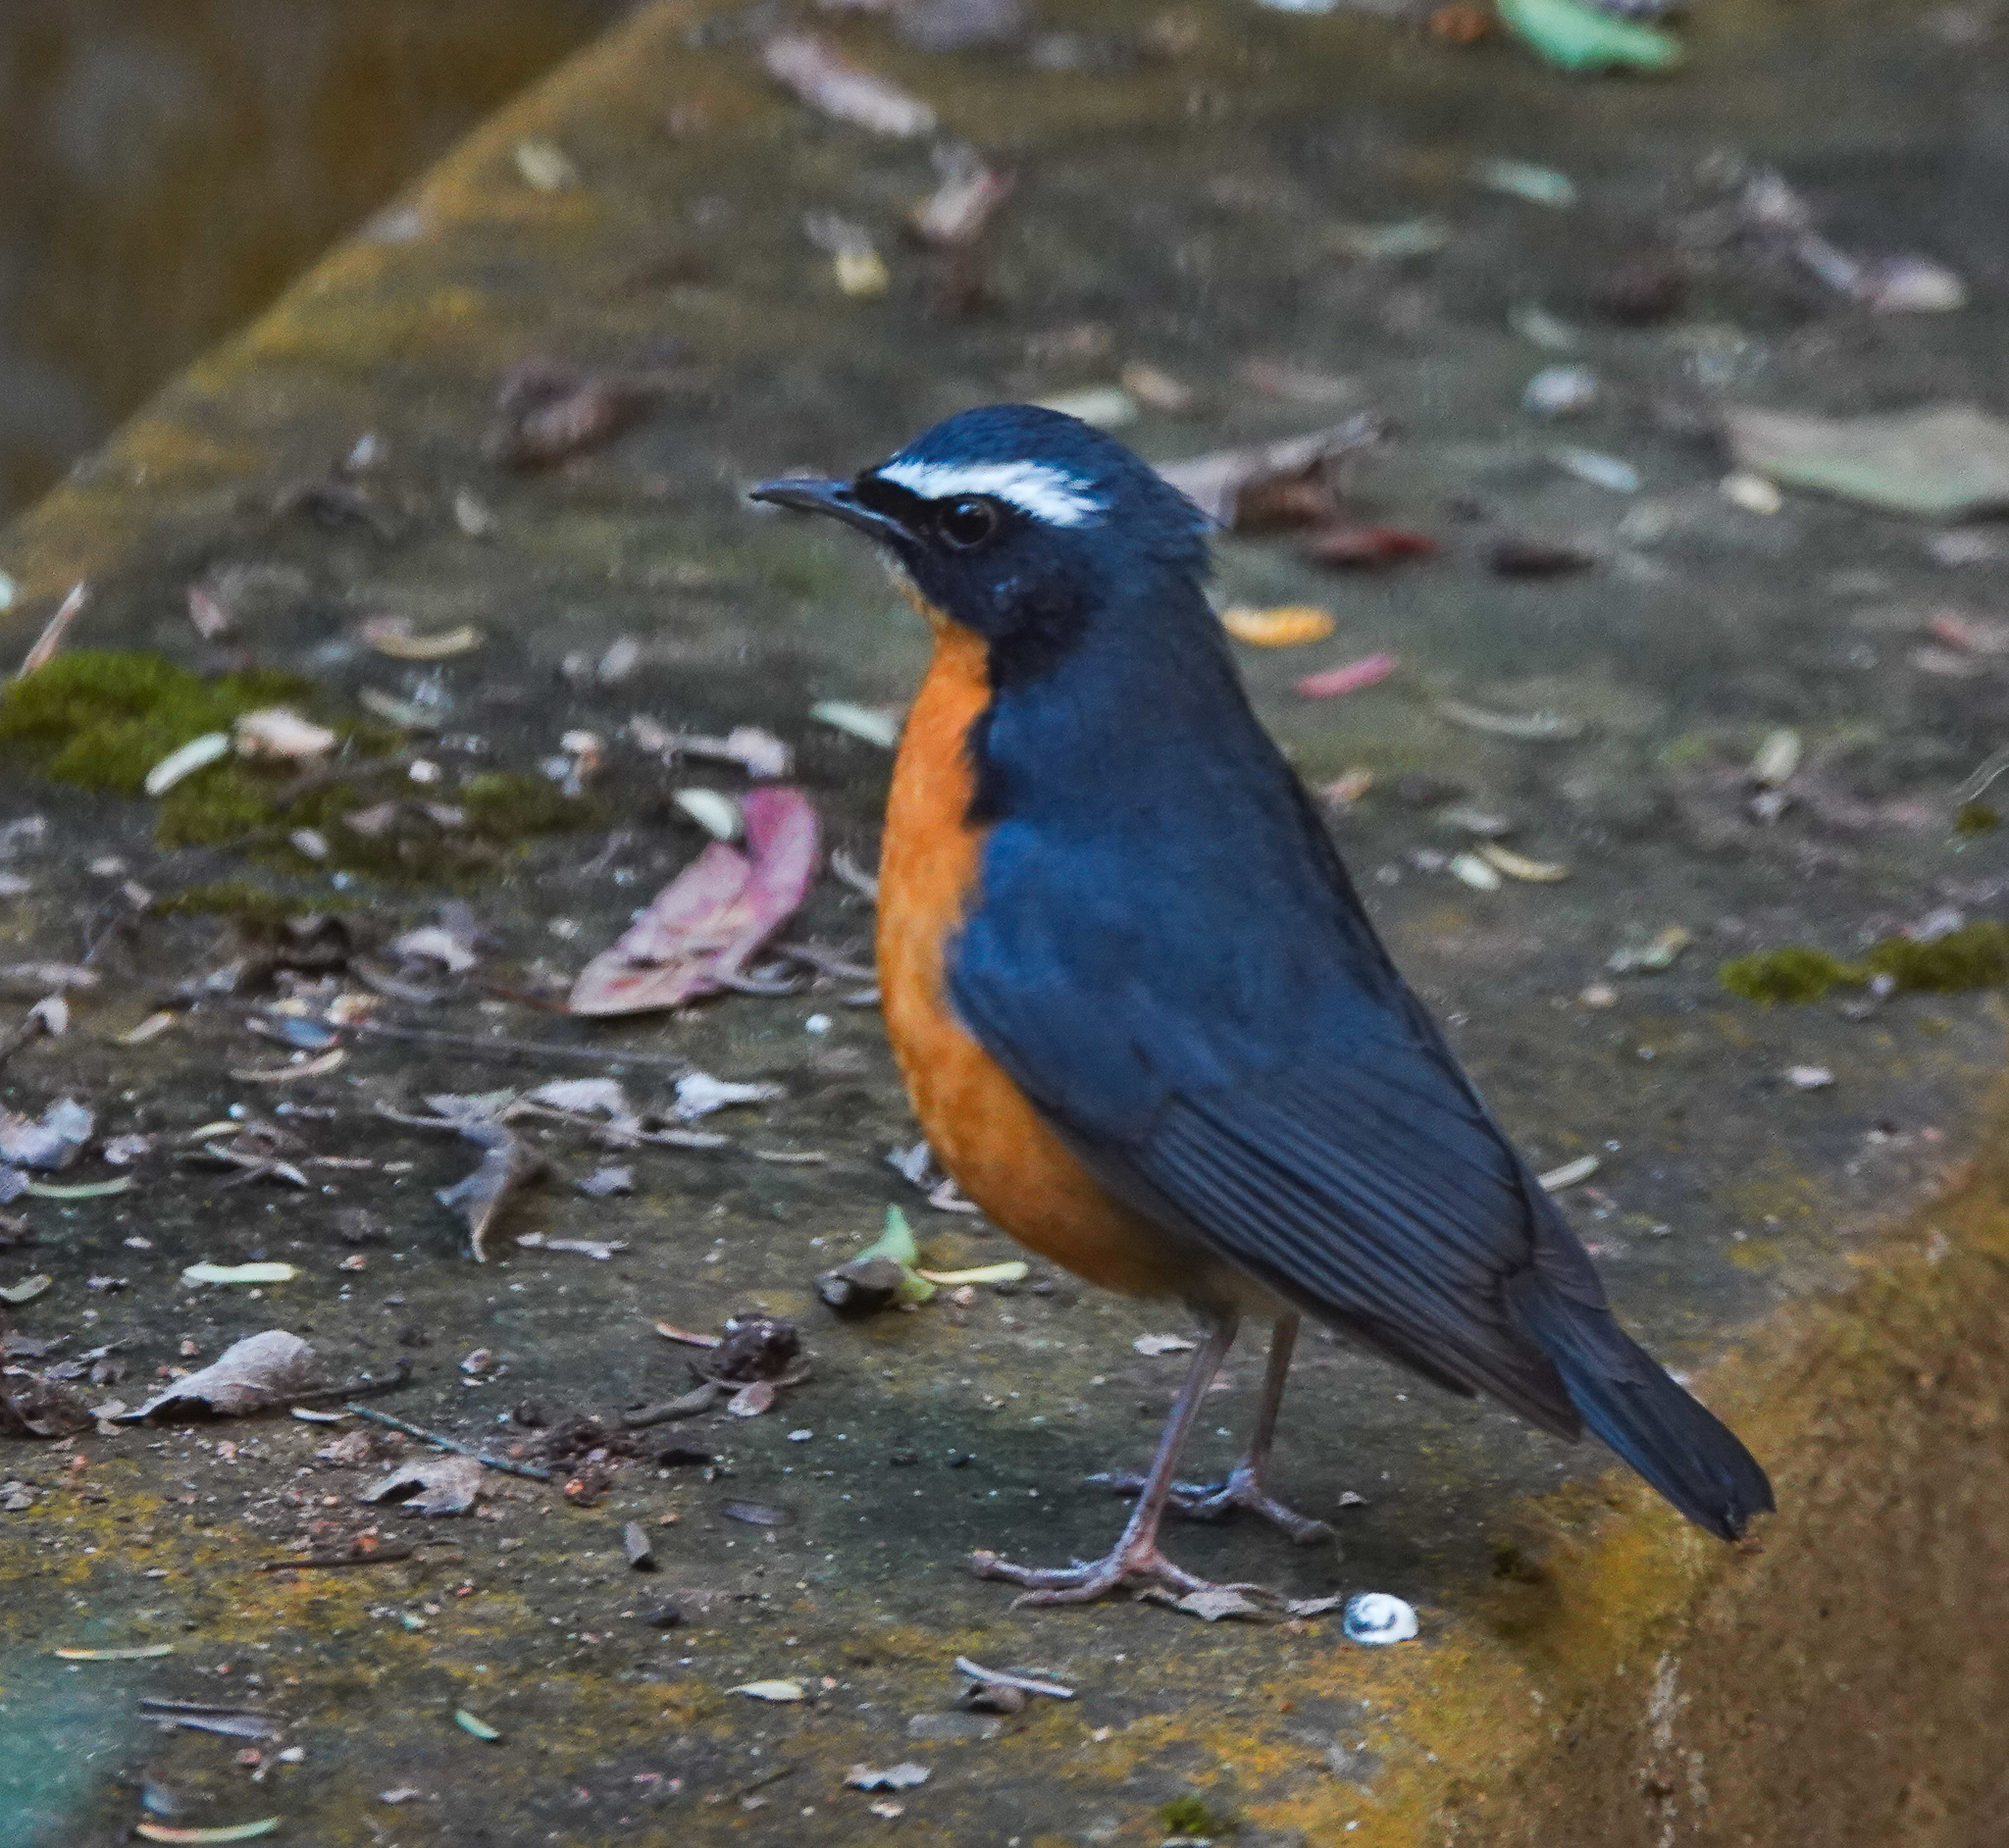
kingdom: Animalia
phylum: Chordata
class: Aves
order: Passeriformes
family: Muscicapidae
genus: Luscinia
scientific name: Luscinia brunnea
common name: Indian blue robin
